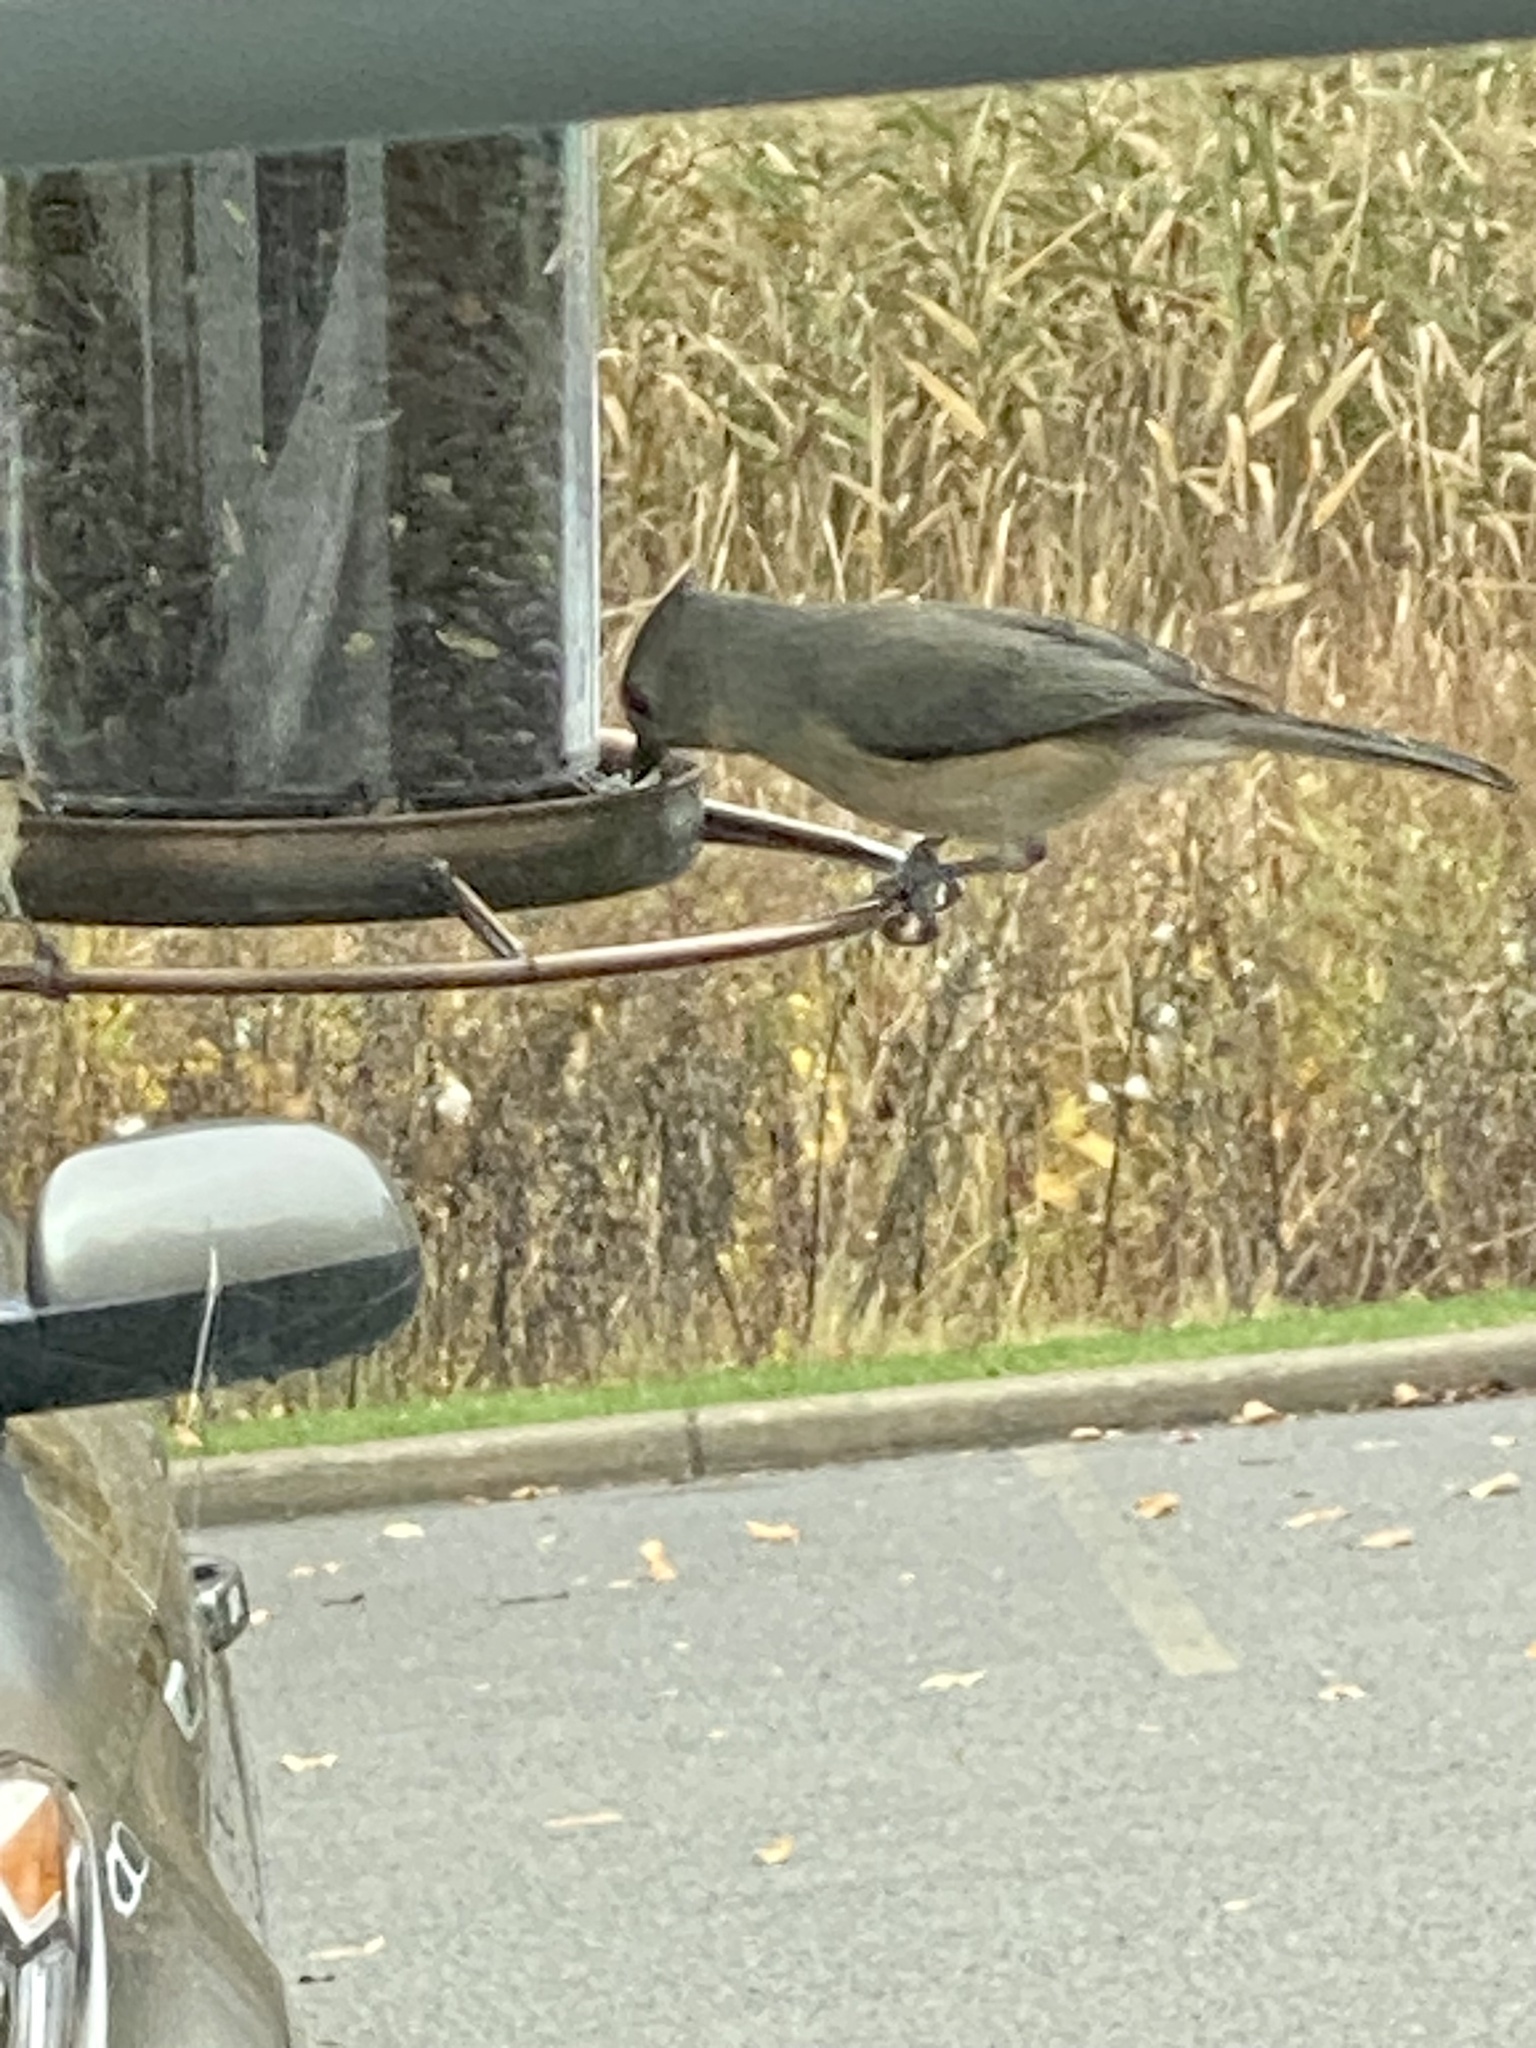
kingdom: Animalia
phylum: Chordata
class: Aves
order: Passeriformes
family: Paridae
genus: Baeolophus
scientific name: Baeolophus bicolor
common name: Tufted titmouse
